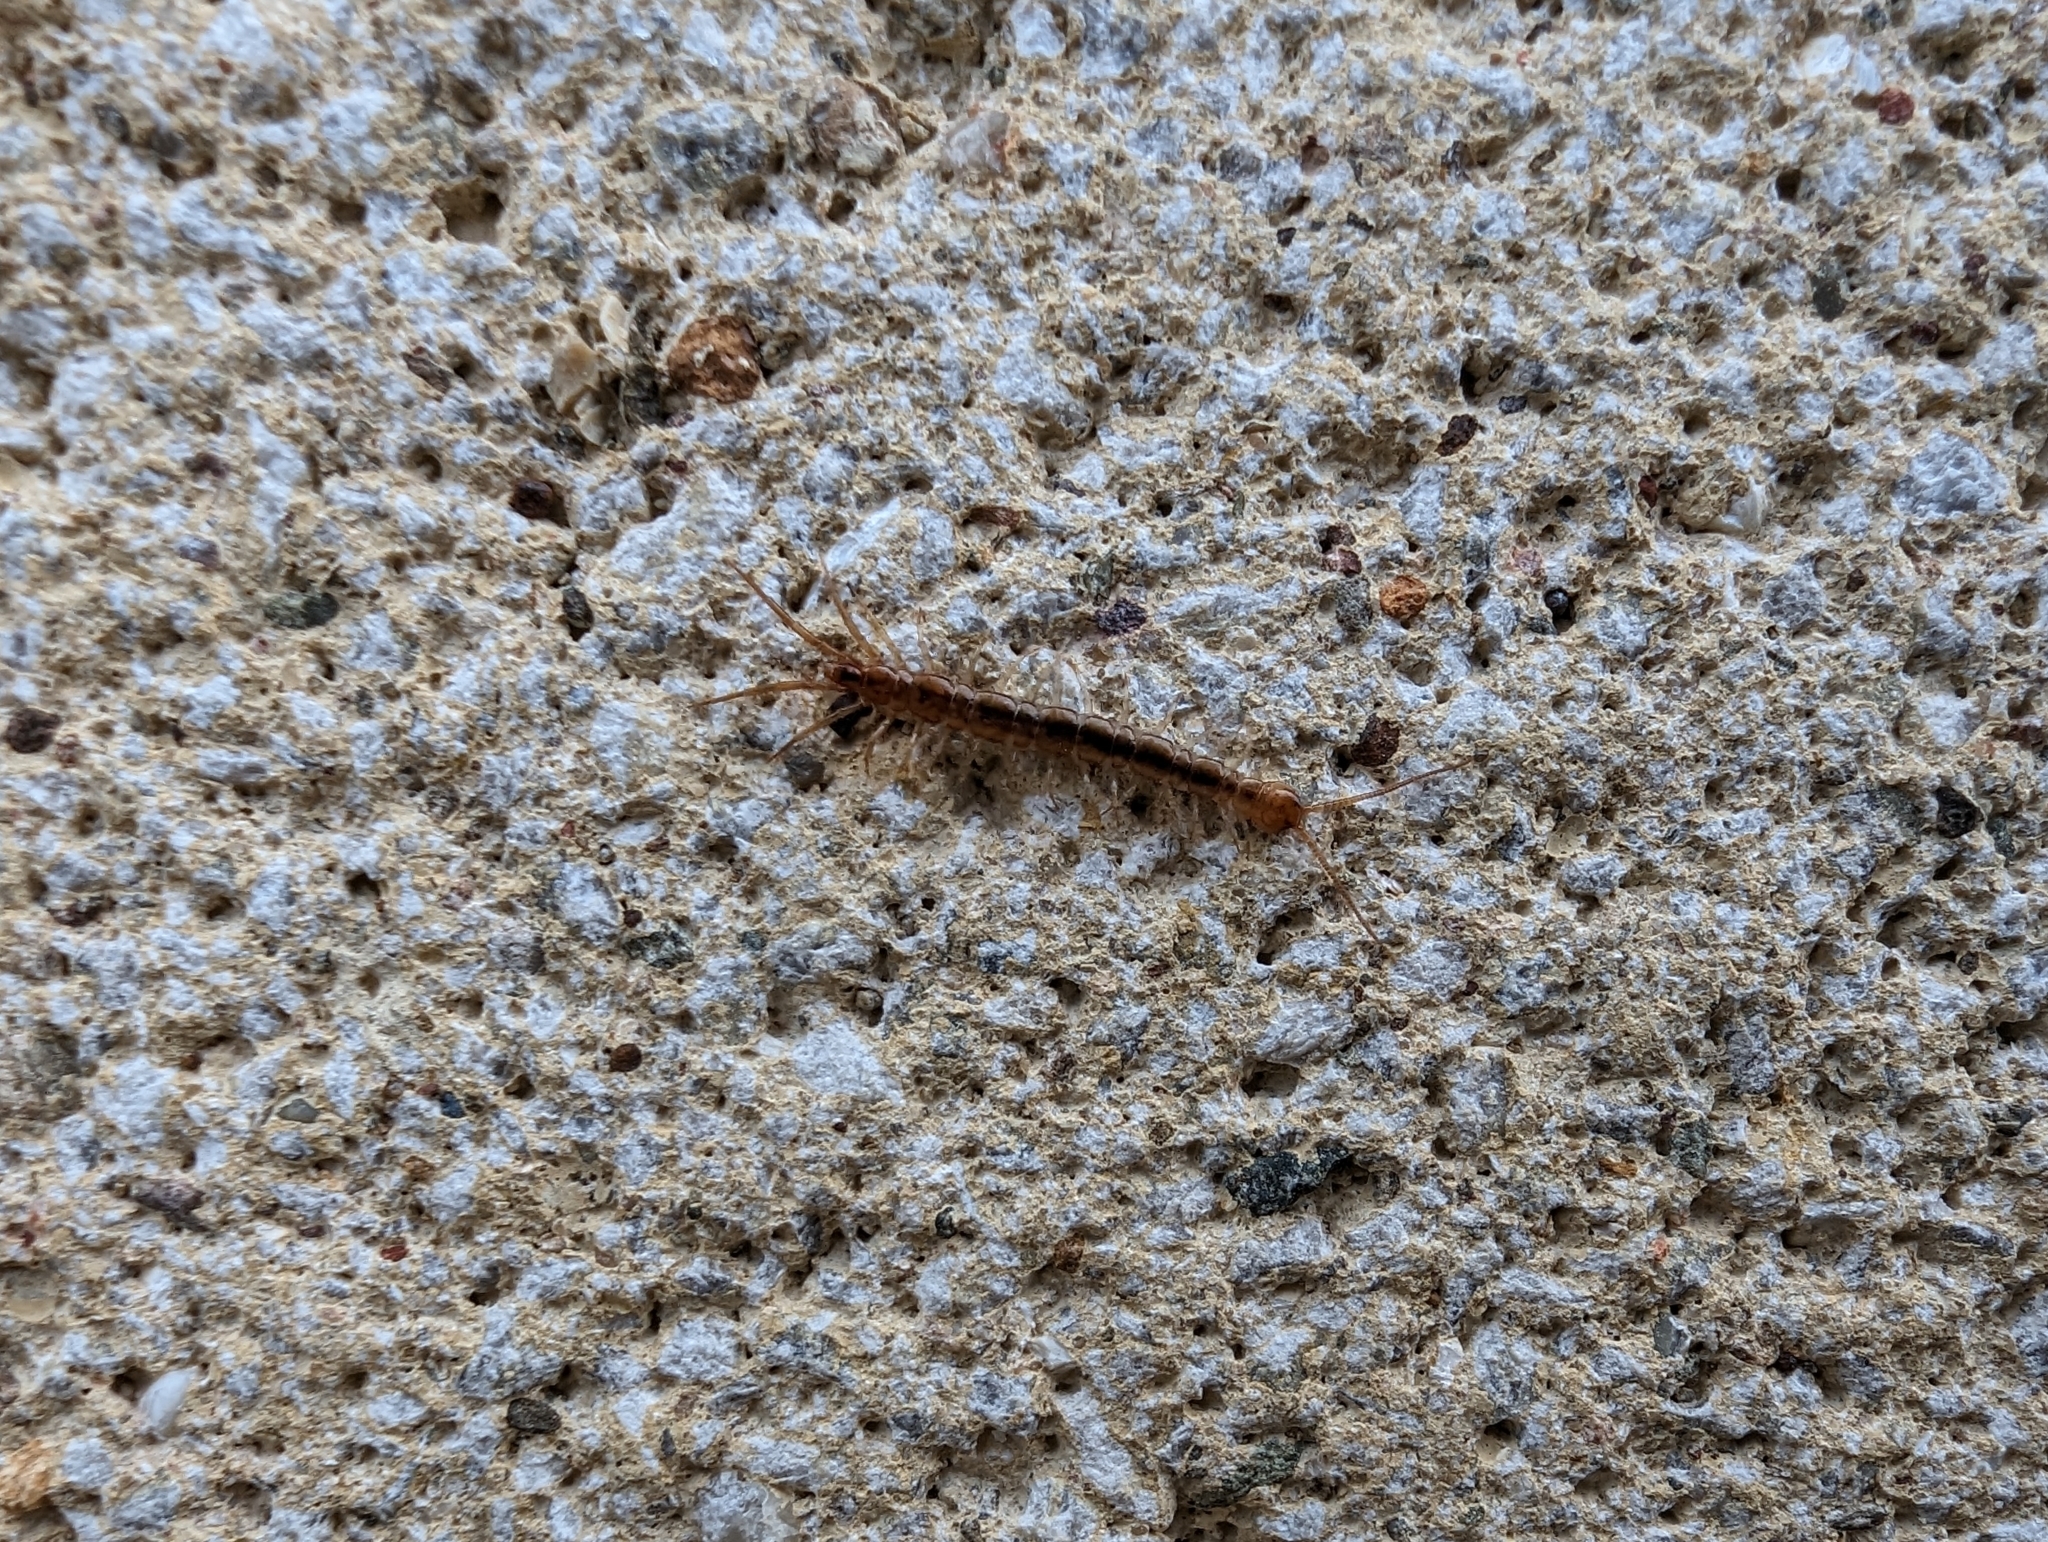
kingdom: Animalia
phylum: Arthropoda
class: Chilopoda
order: Lithobiomorpha
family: Lithobiidae
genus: Lithobius
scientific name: Lithobius melanops
